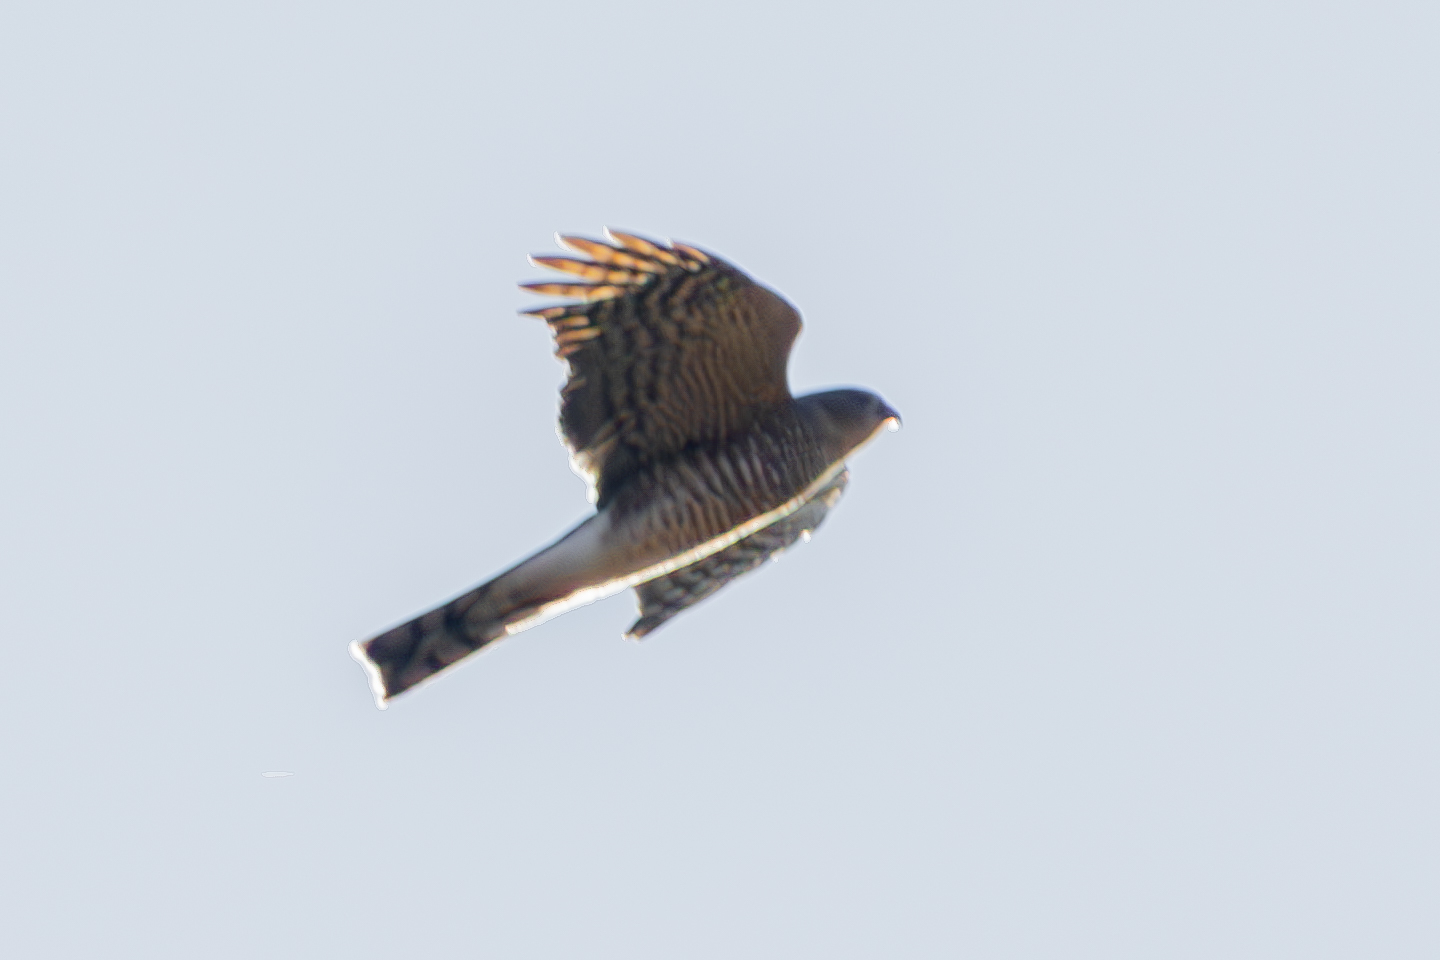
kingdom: Animalia
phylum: Chordata
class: Aves
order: Accipitriformes
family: Accipitridae
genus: Accipiter
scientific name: Accipiter striatus
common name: Sharp-shinned hawk
